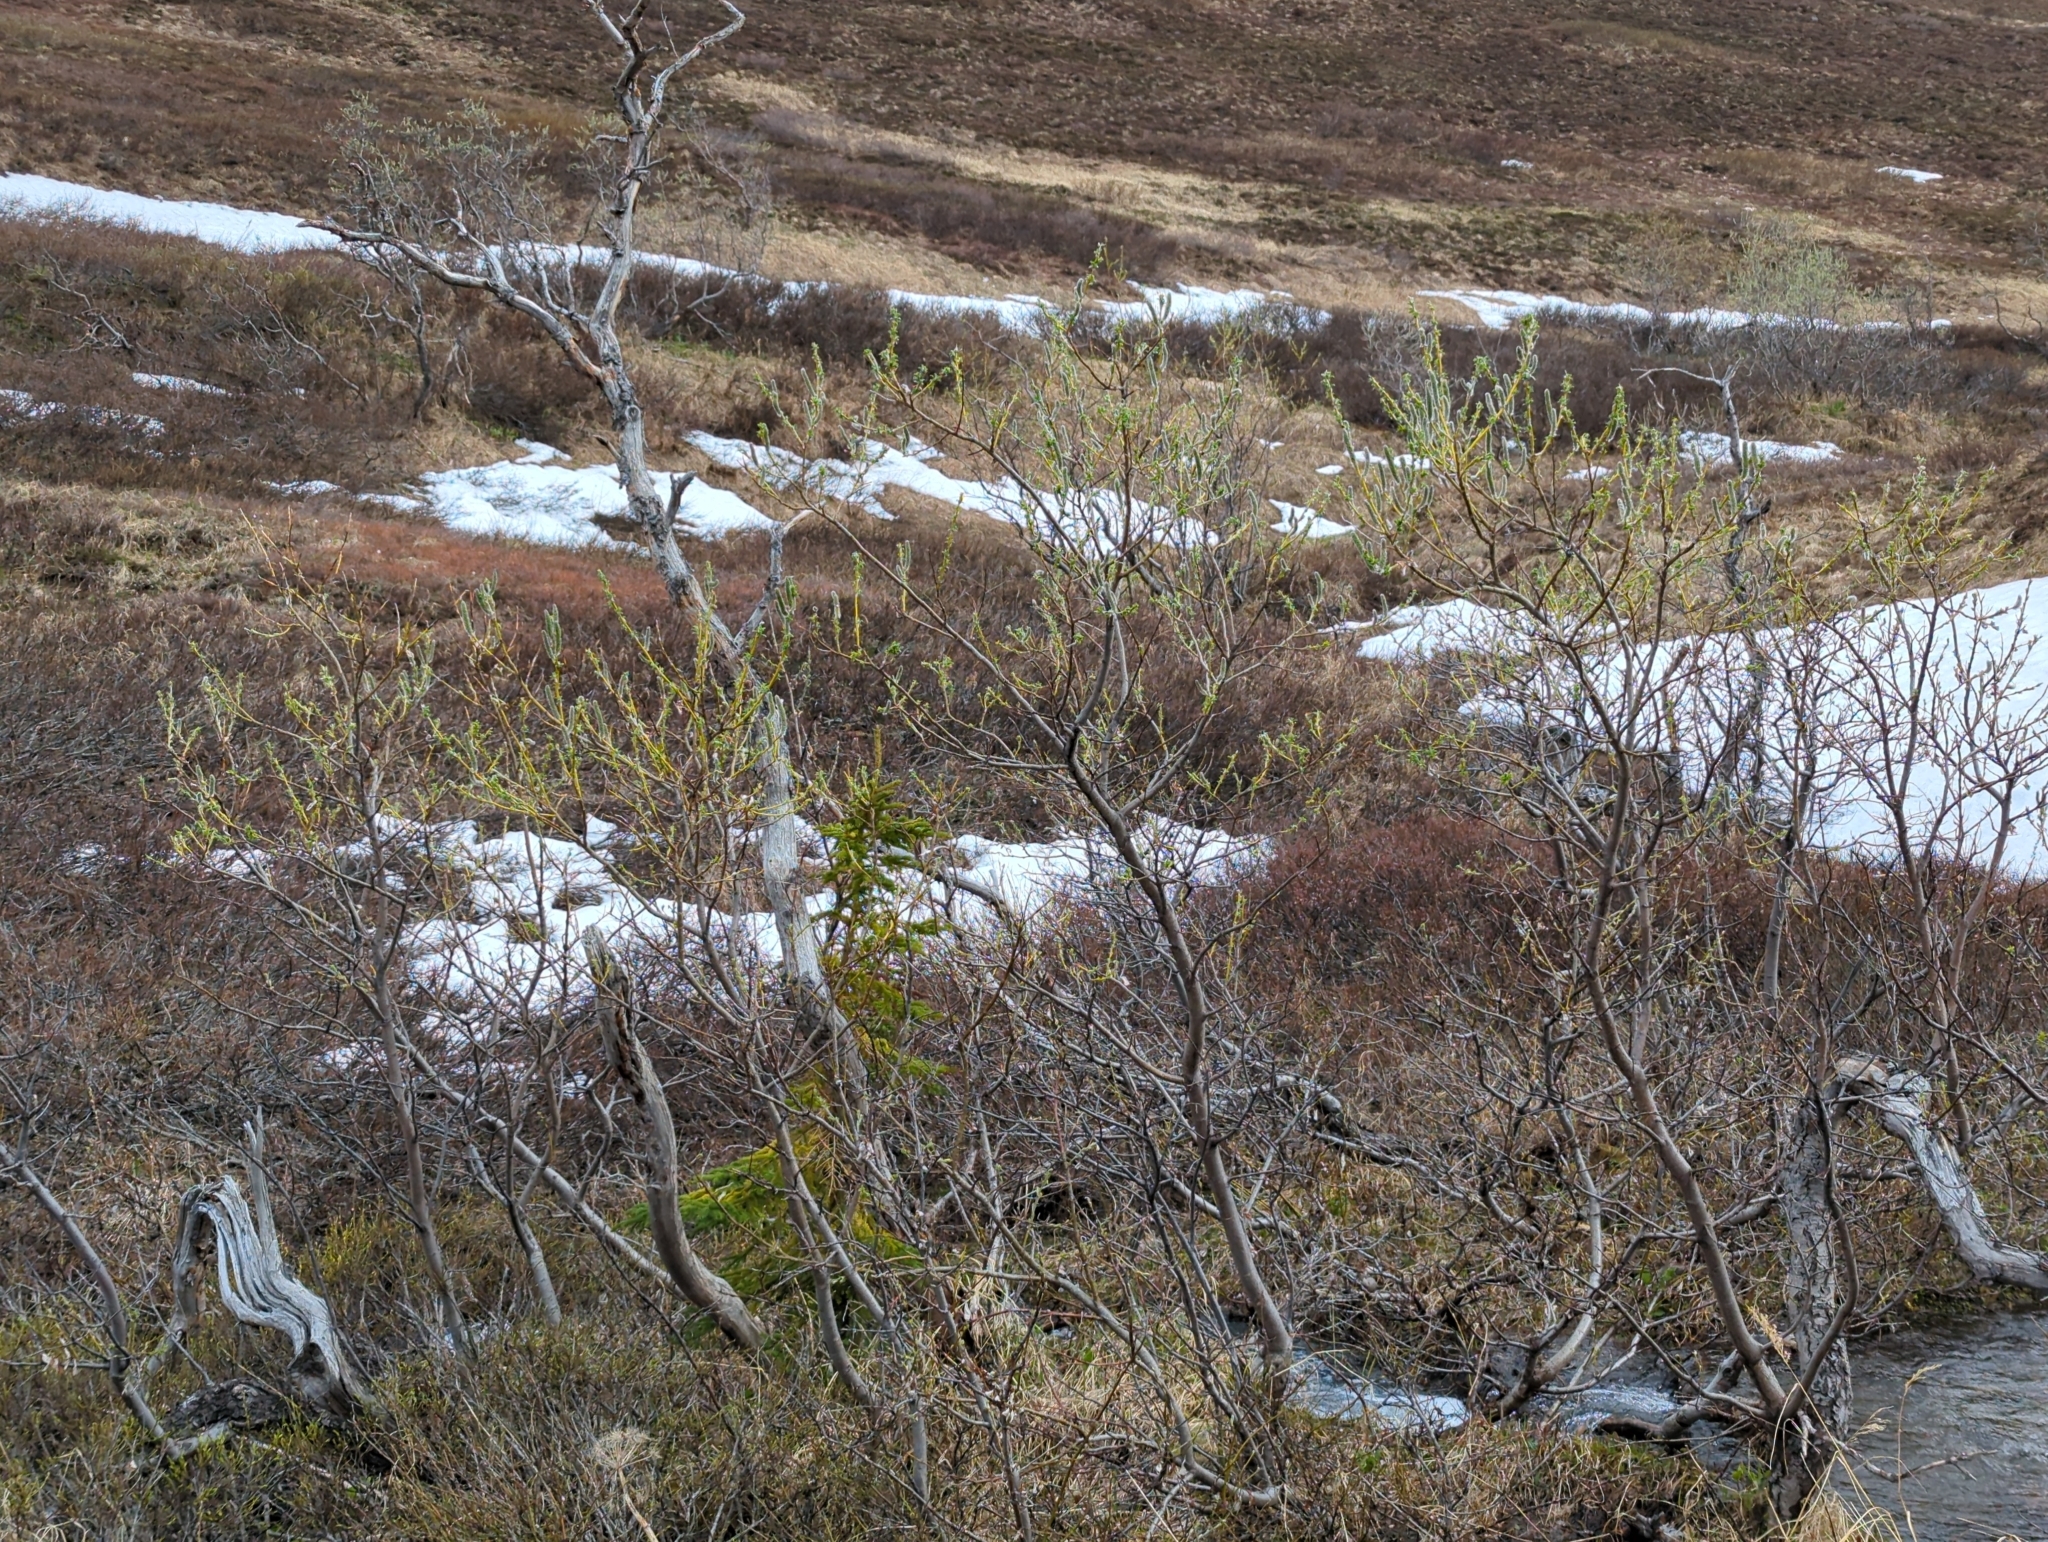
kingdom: Plantae
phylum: Tracheophyta
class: Magnoliopsida
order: Malpighiales
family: Salicaceae
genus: Salix
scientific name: Salix alaxensis
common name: Feltleaf willow
